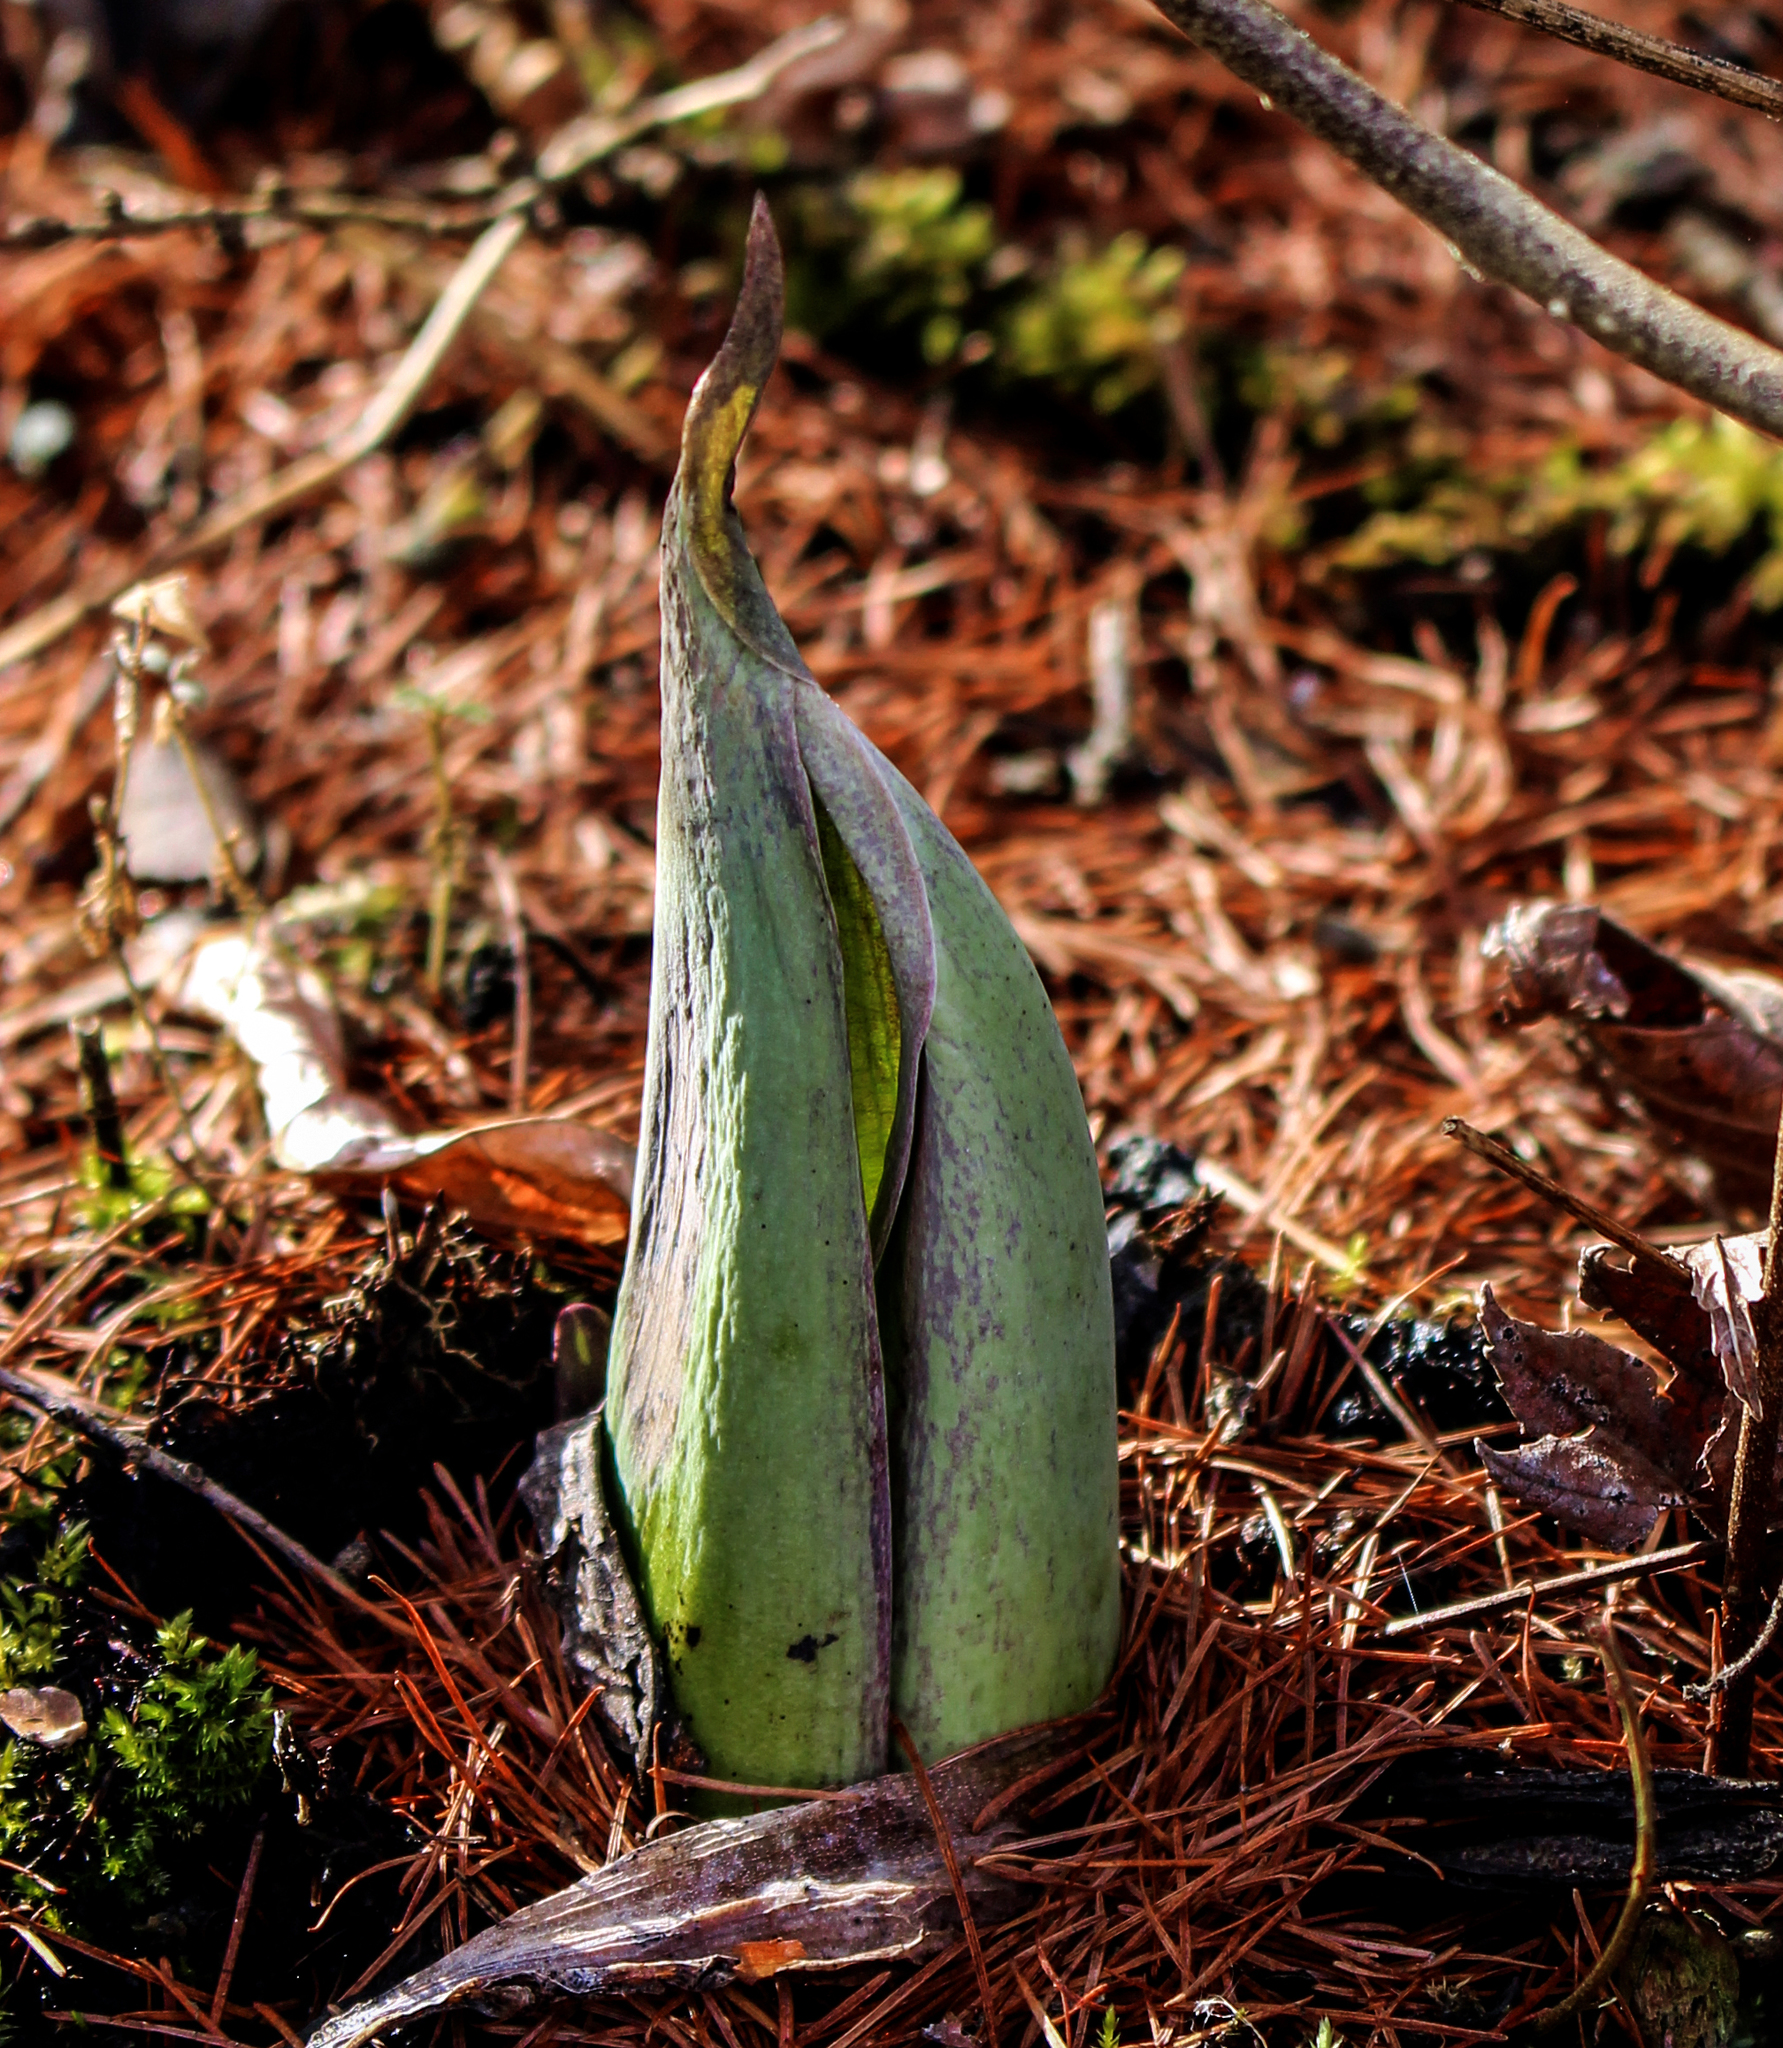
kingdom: Plantae
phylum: Tracheophyta
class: Liliopsida
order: Alismatales
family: Araceae
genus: Symplocarpus
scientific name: Symplocarpus foetidus
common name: Eastern skunk cabbage
